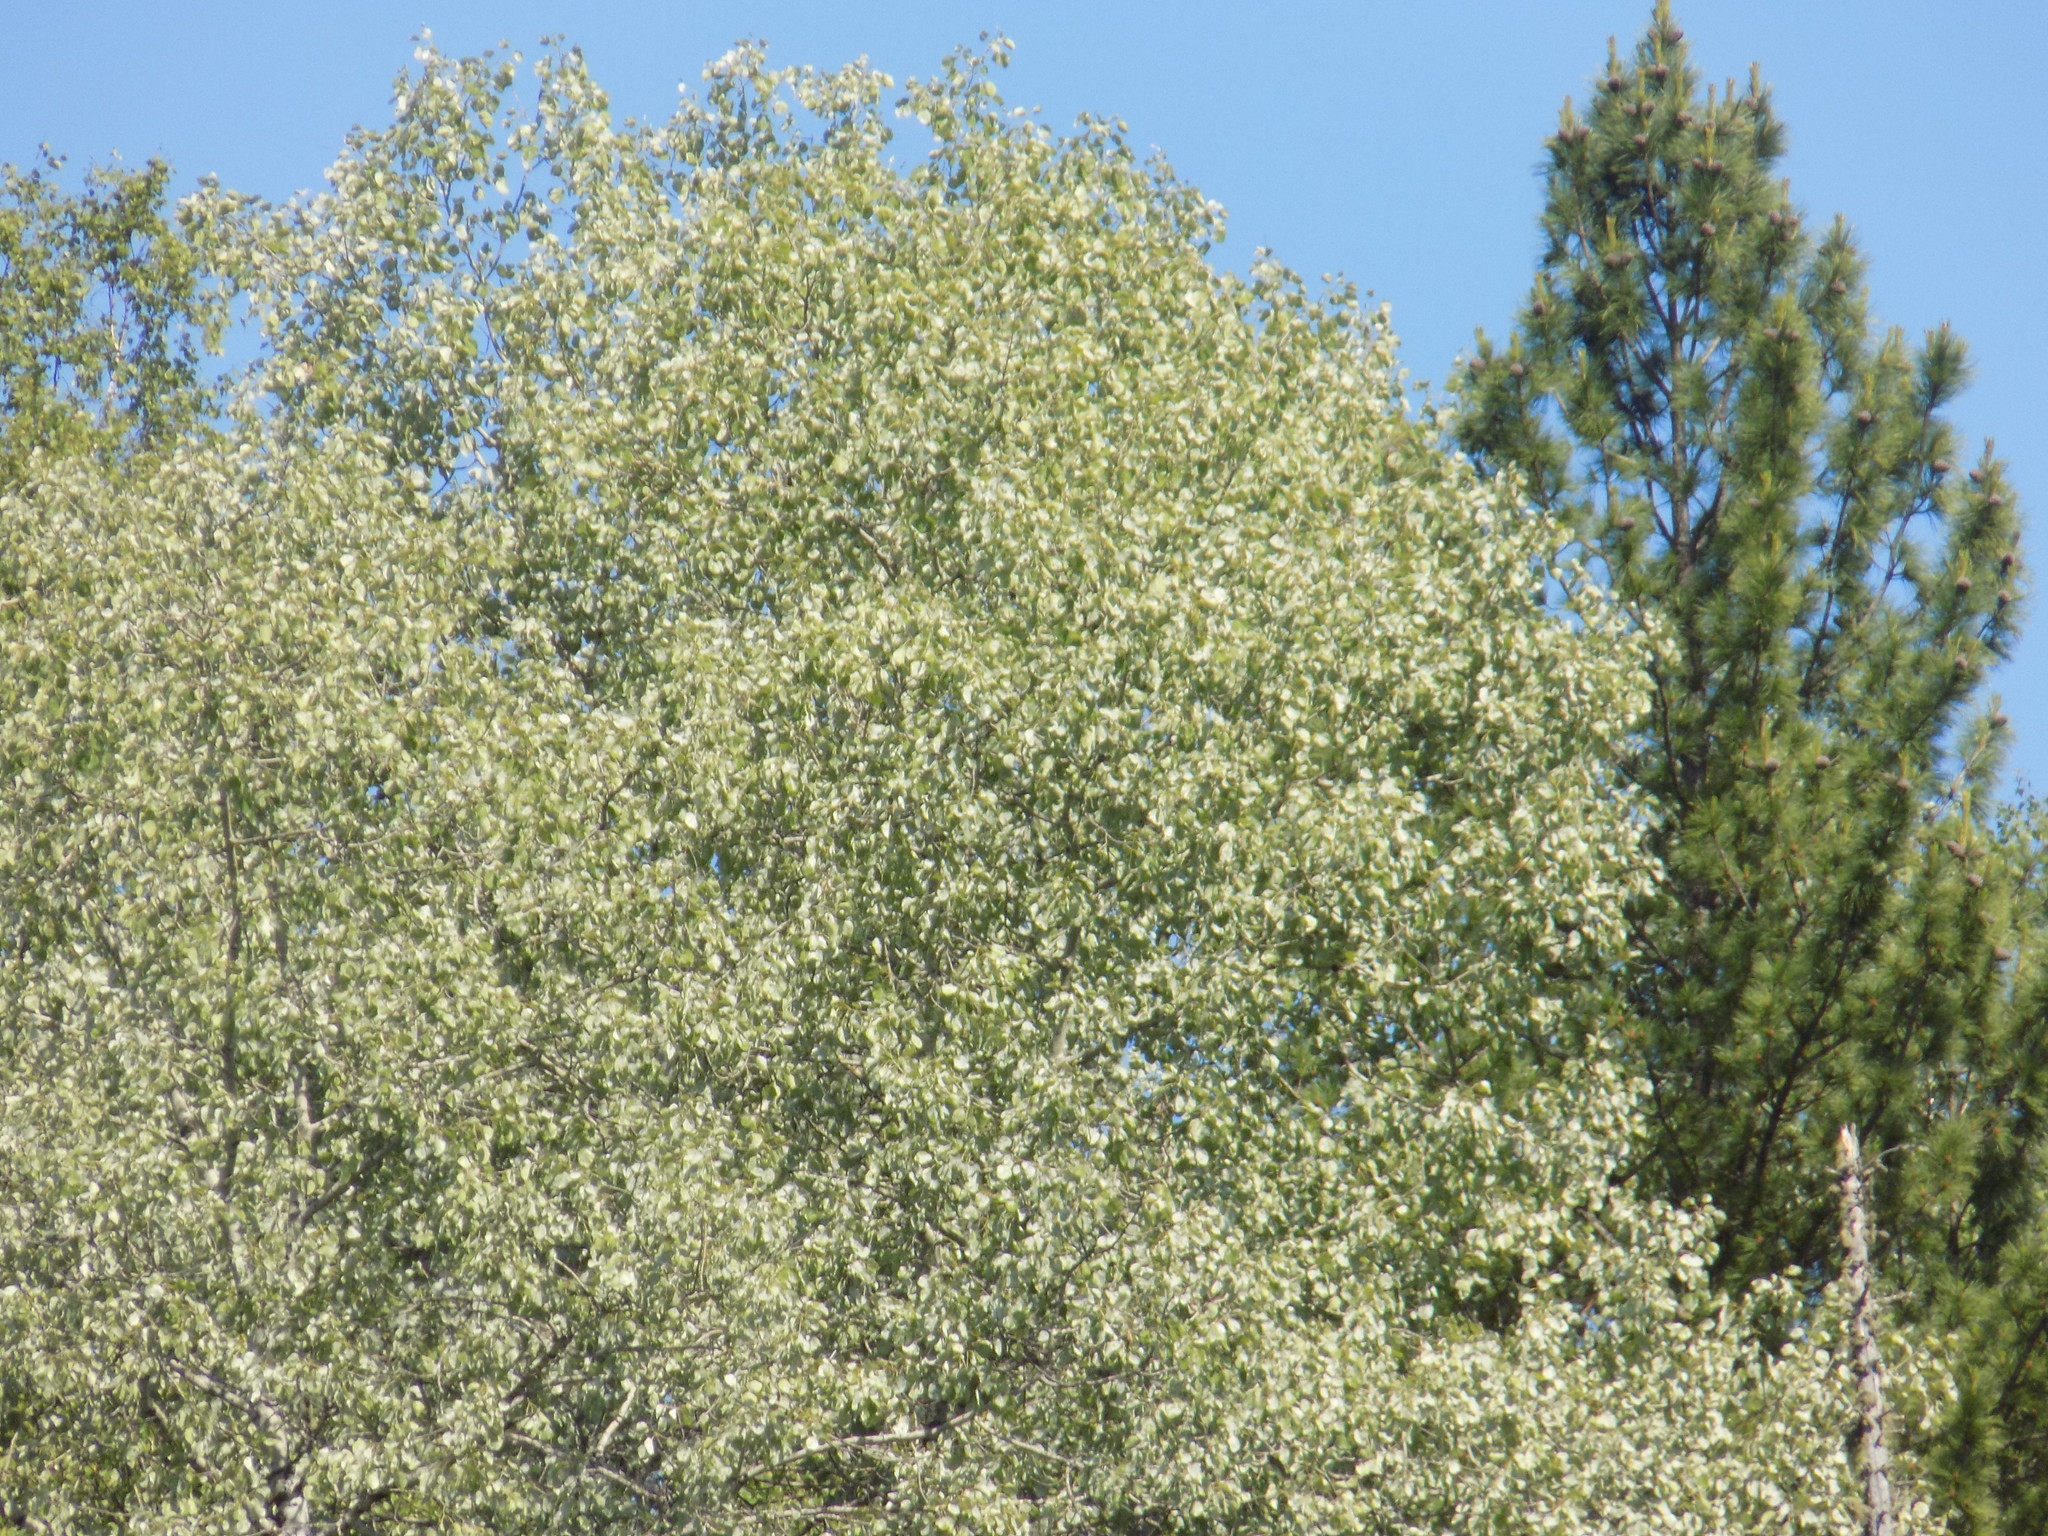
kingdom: Plantae
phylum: Tracheophyta
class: Magnoliopsida
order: Malpighiales
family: Salicaceae
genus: Populus
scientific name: Populus tremula
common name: European aspen
